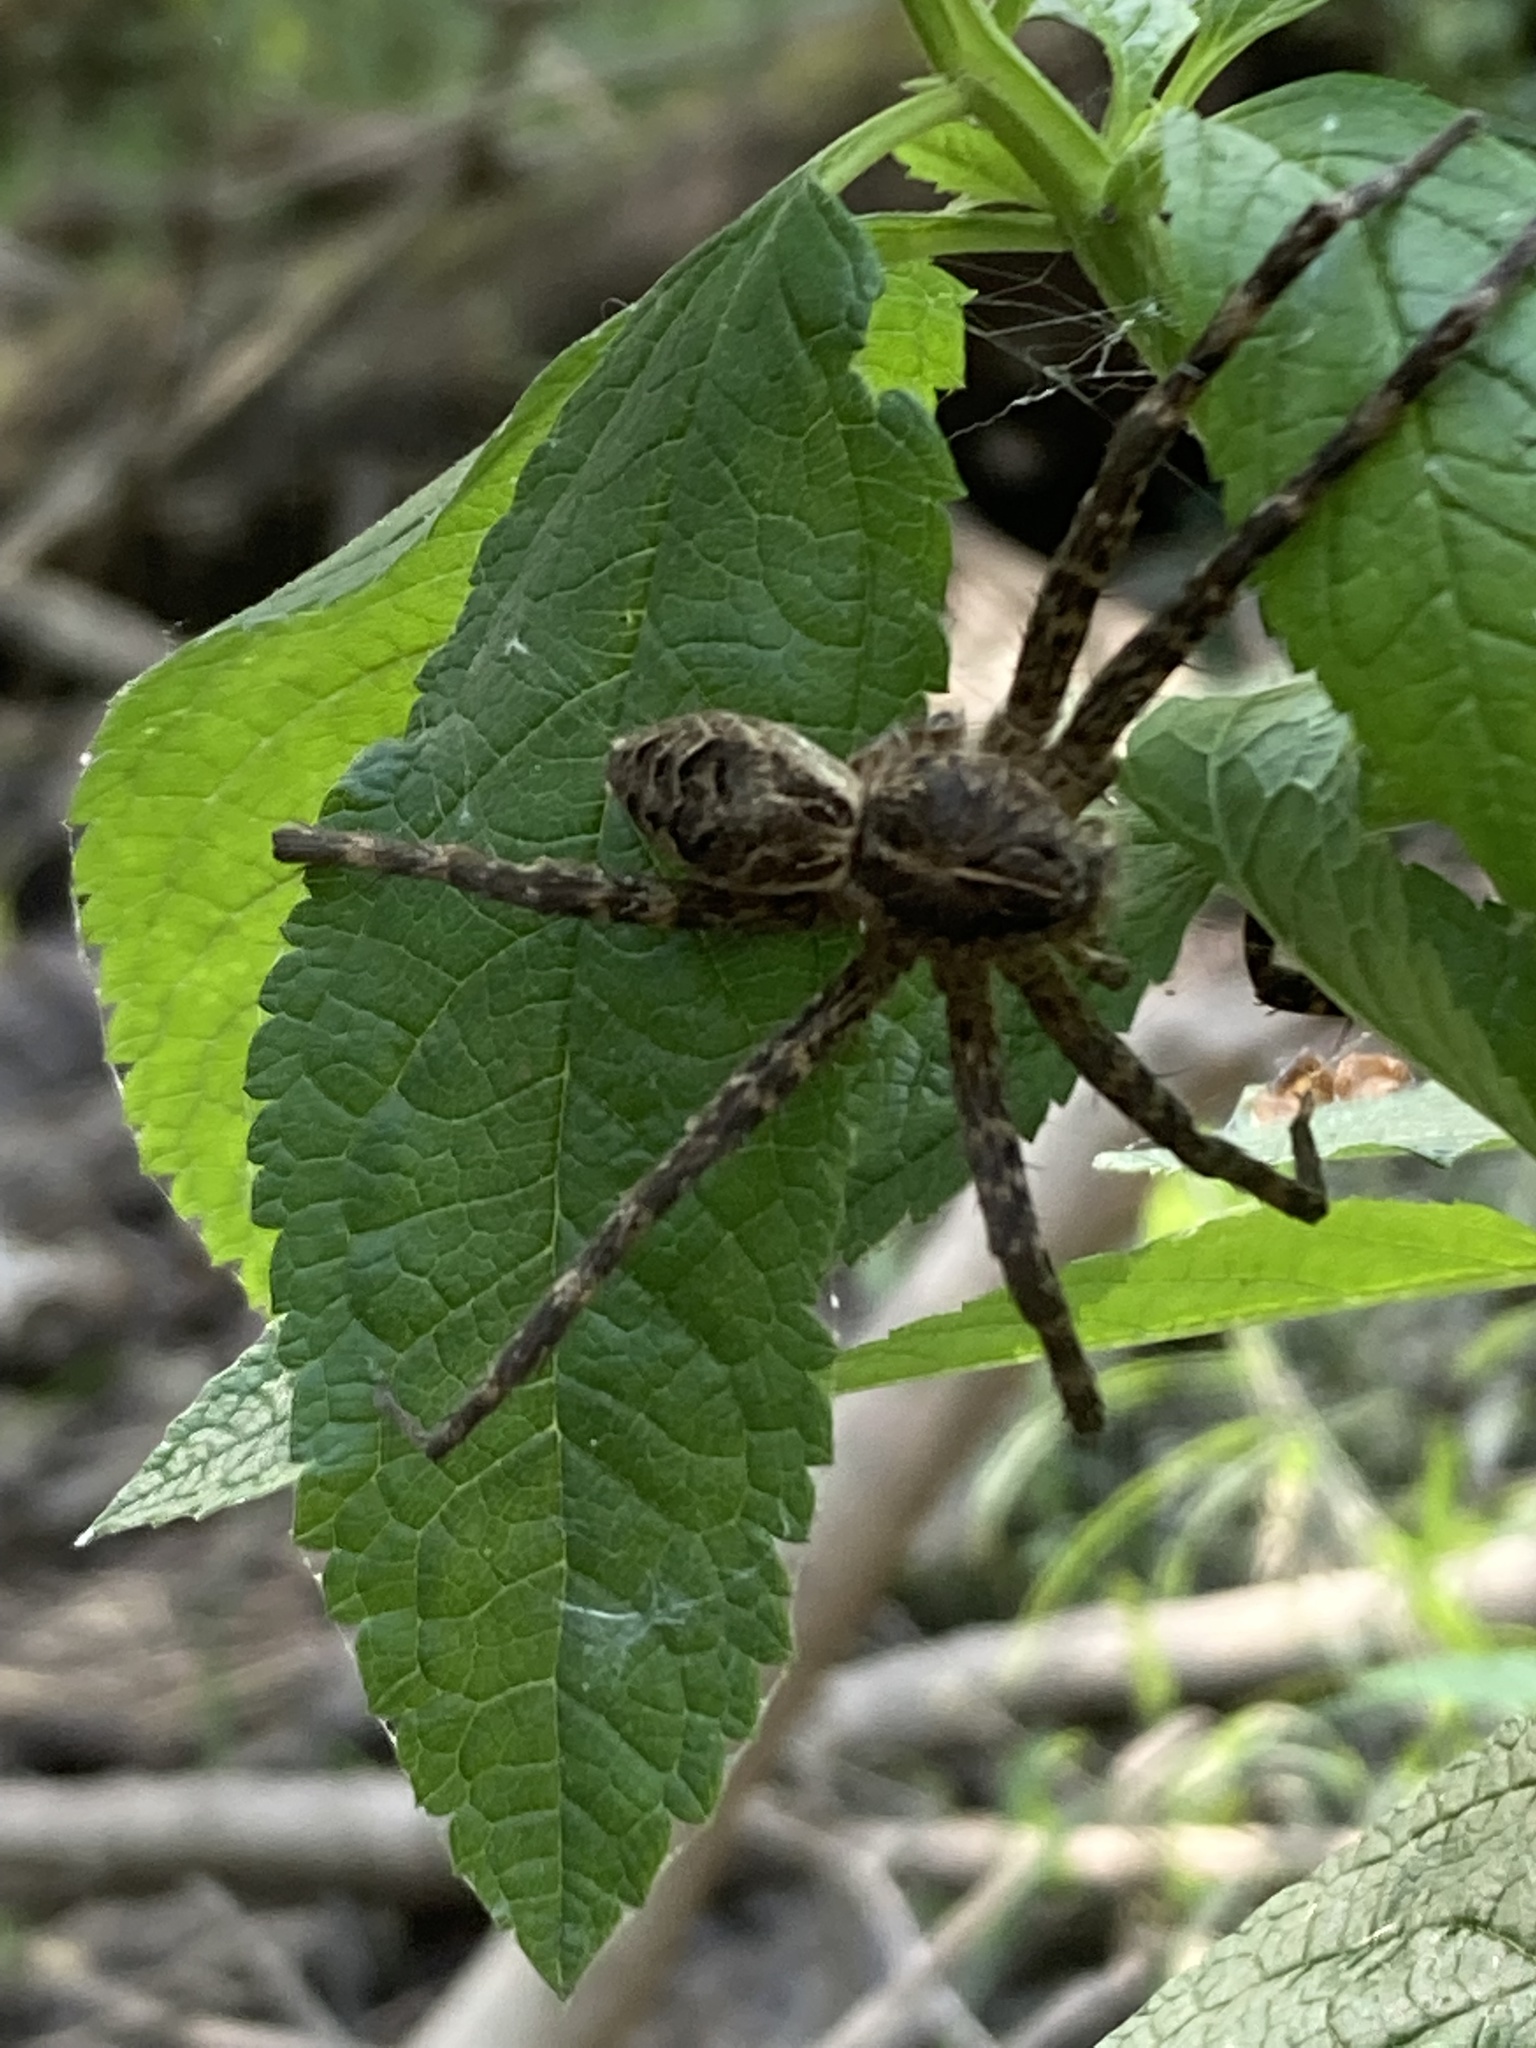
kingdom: Animalia
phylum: Arthropoda
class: Arachnida
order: Araneae
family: Pisauridae
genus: Dolomedes
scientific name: Dolomedes scriptus
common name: Striped fishing spider
